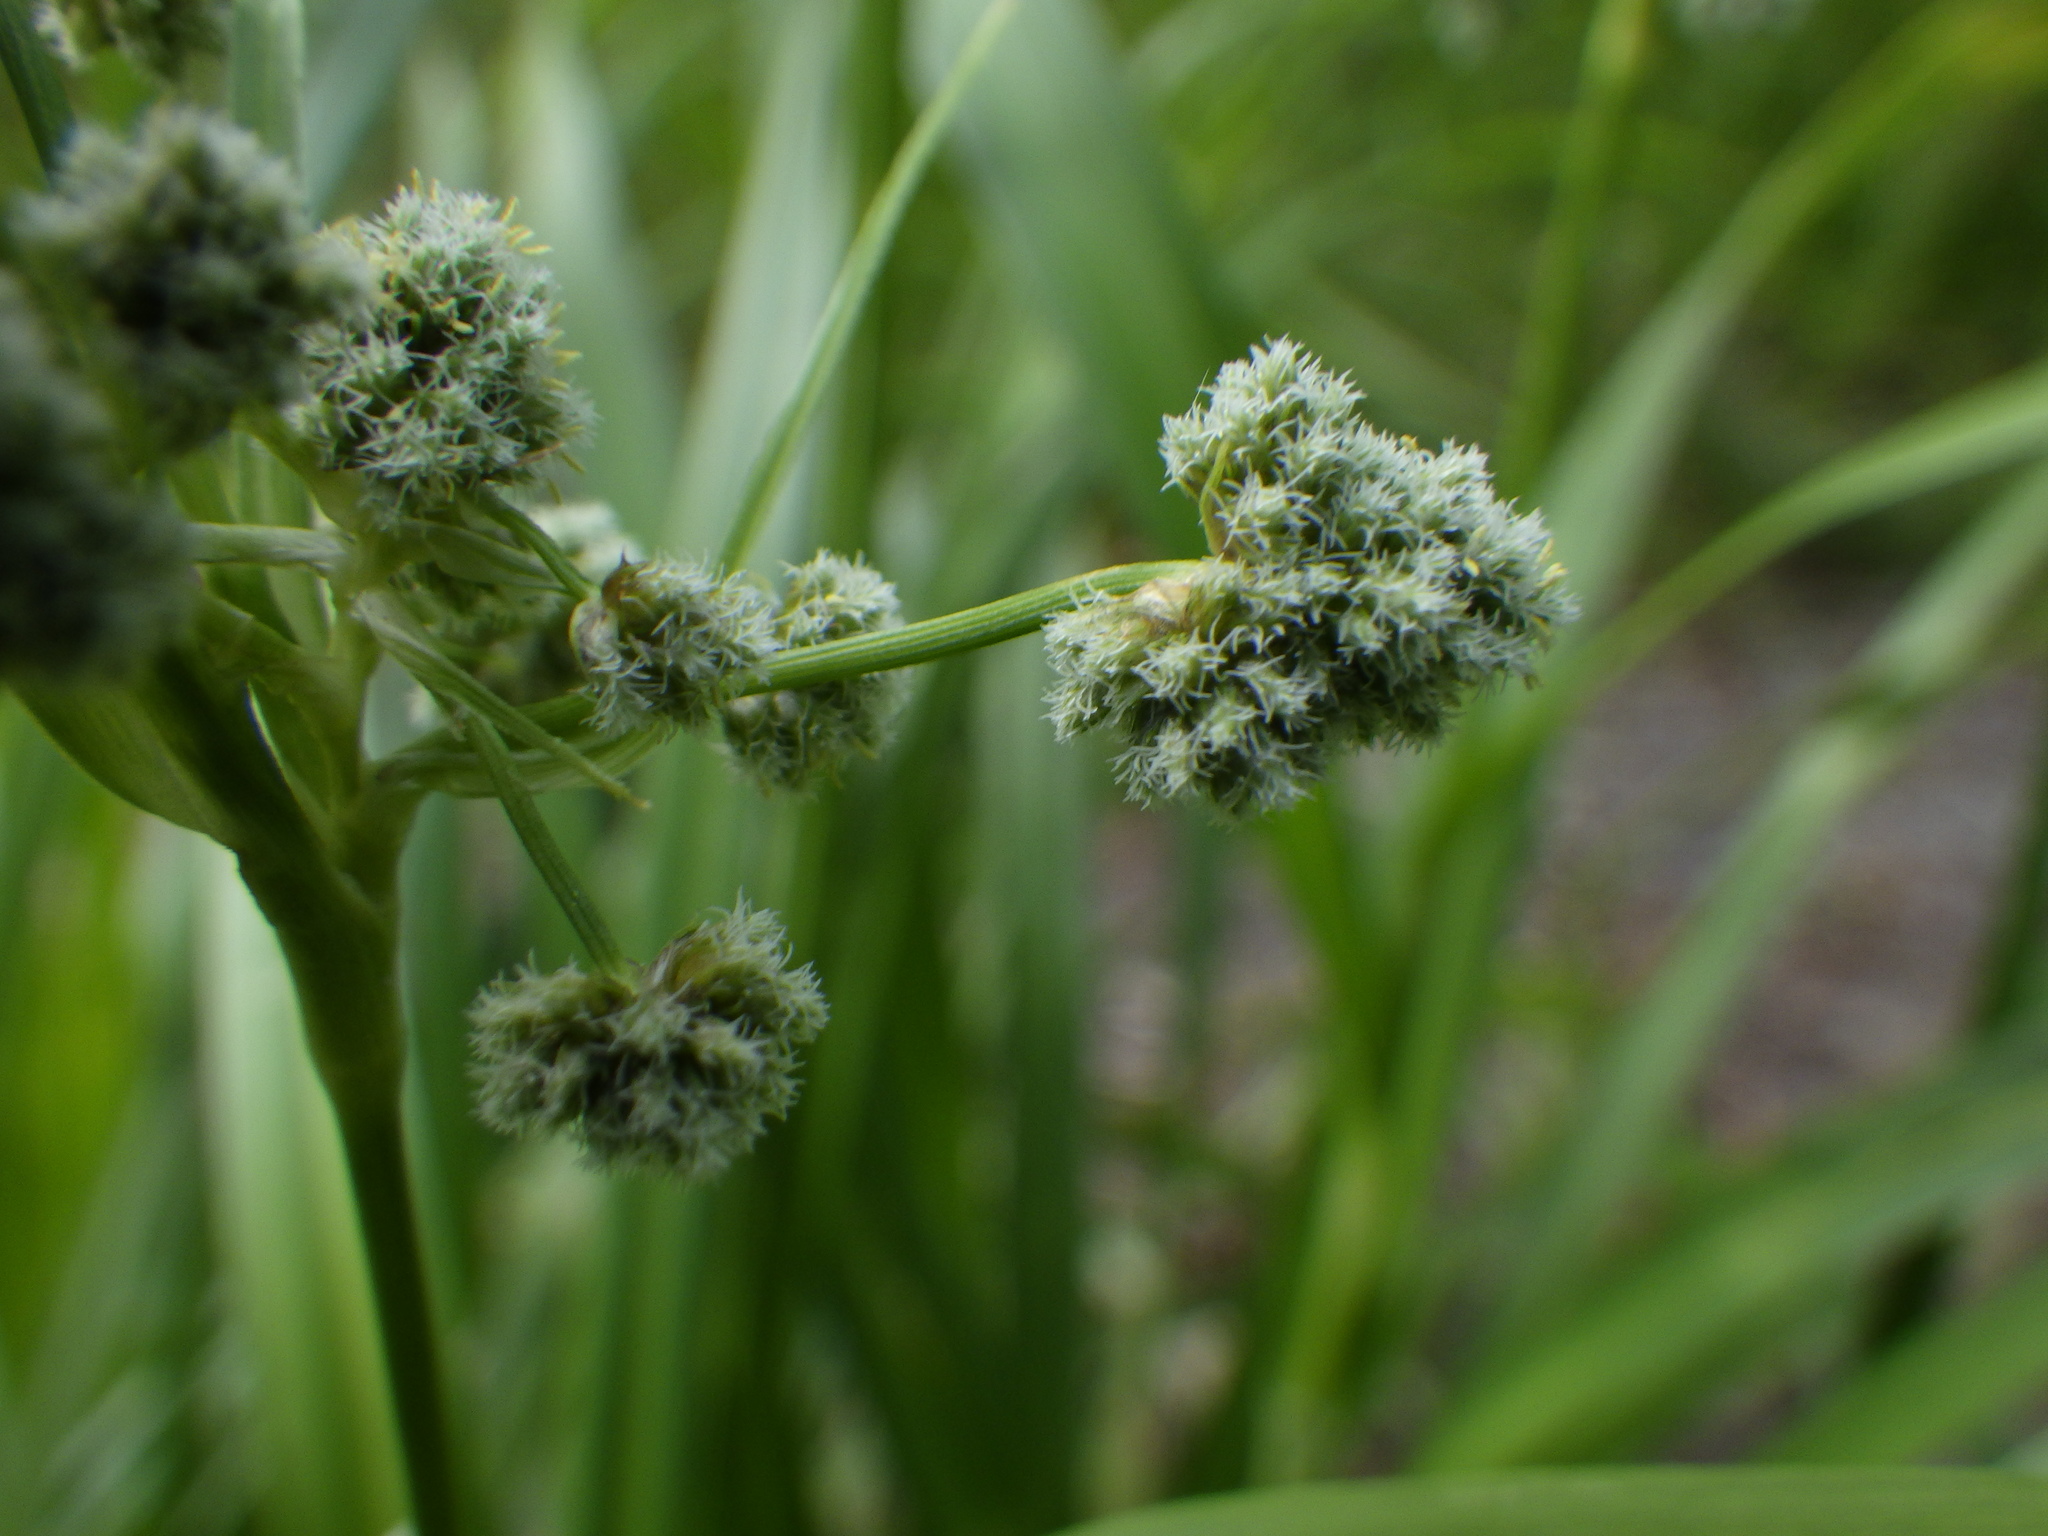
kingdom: Plantae
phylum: Tracheophyta
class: Liliopsida
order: Poales
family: Cyperaceae
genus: Scirpus
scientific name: Scirpus hattorianus
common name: Early dark-green bulrush
